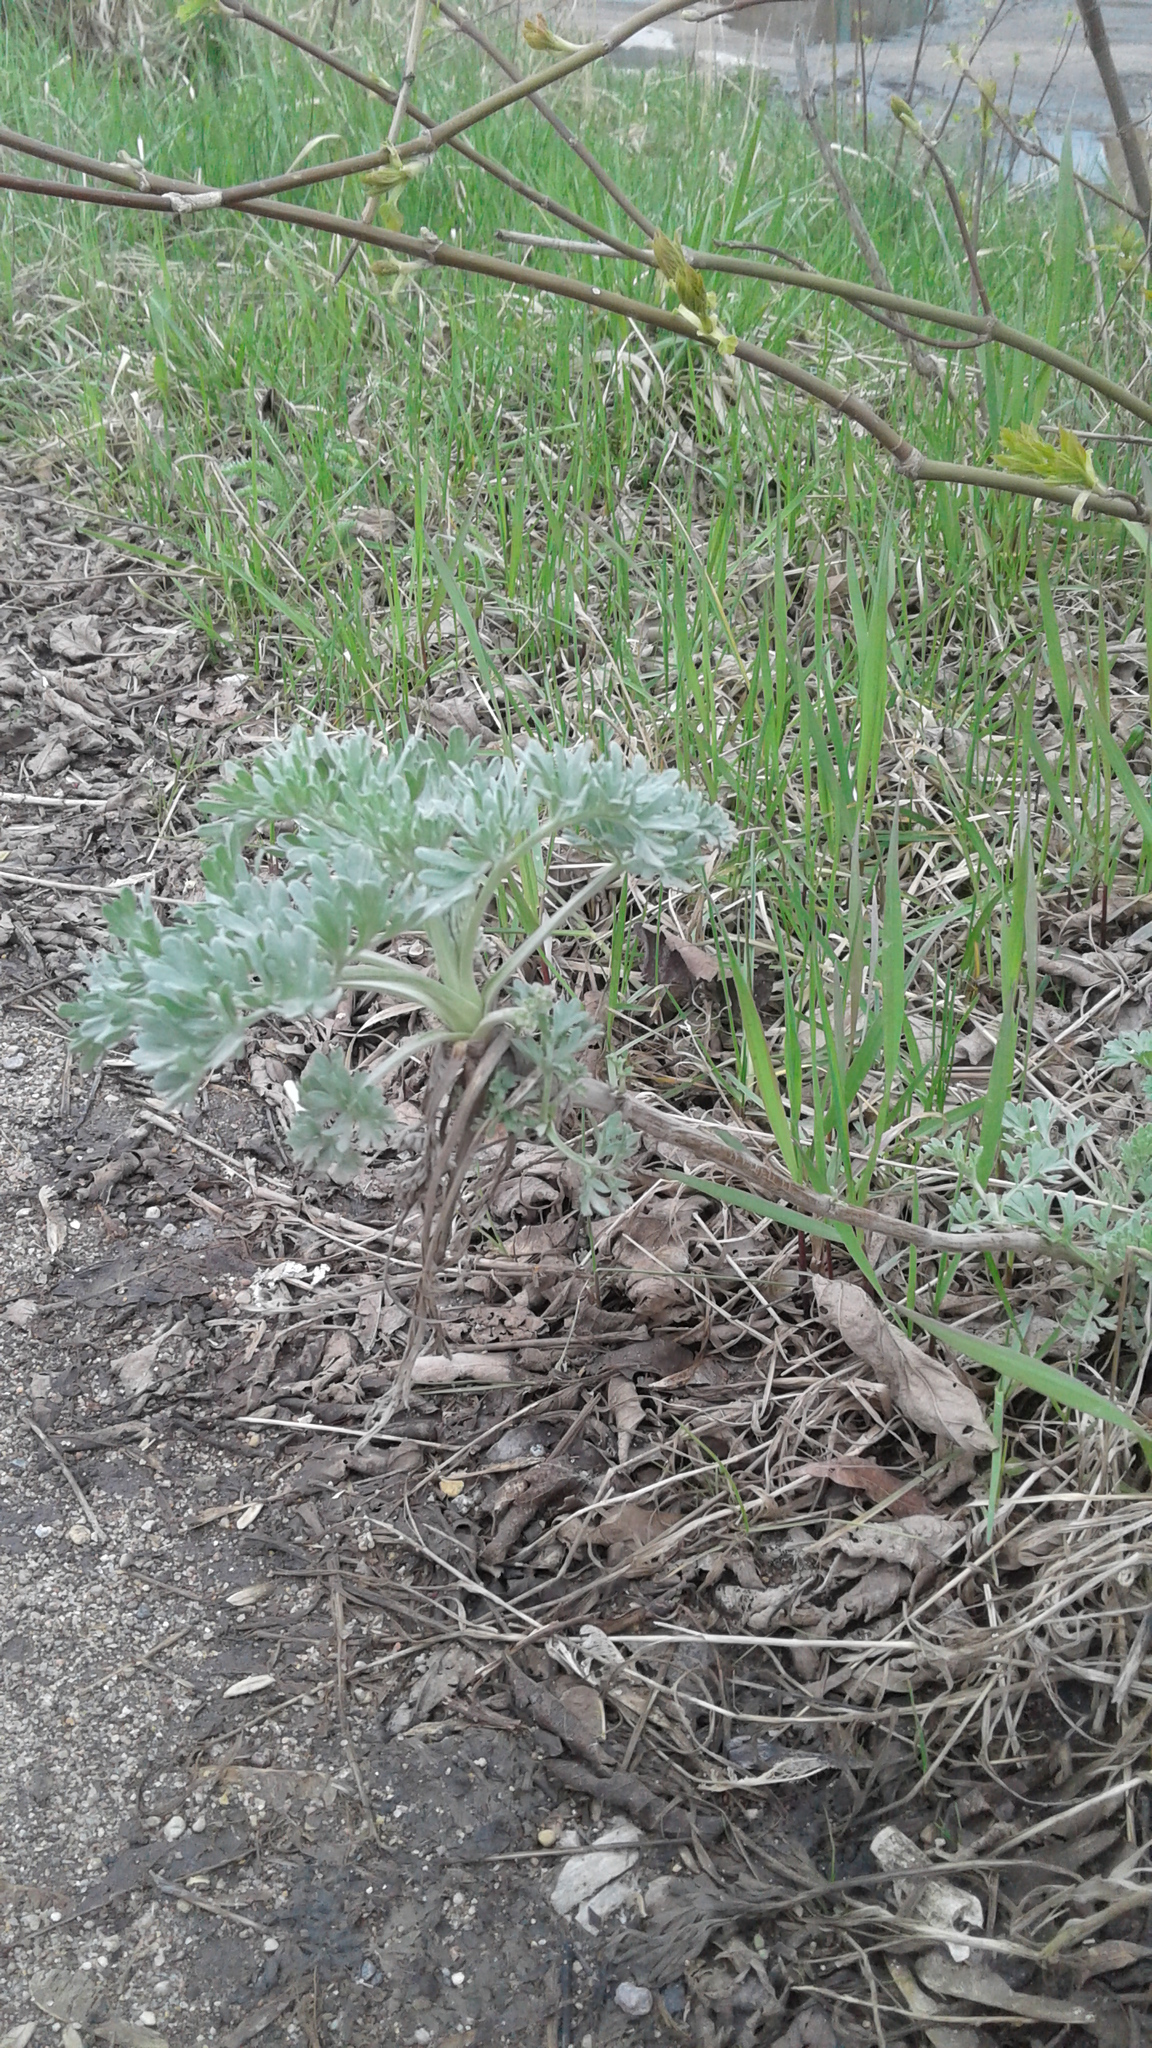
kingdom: Plantae
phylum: Tracheophyta
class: Magnoliopsida
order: Asterales
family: Asteraceae
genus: Artemisia
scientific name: Artemisia absinthium
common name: Wormwood
